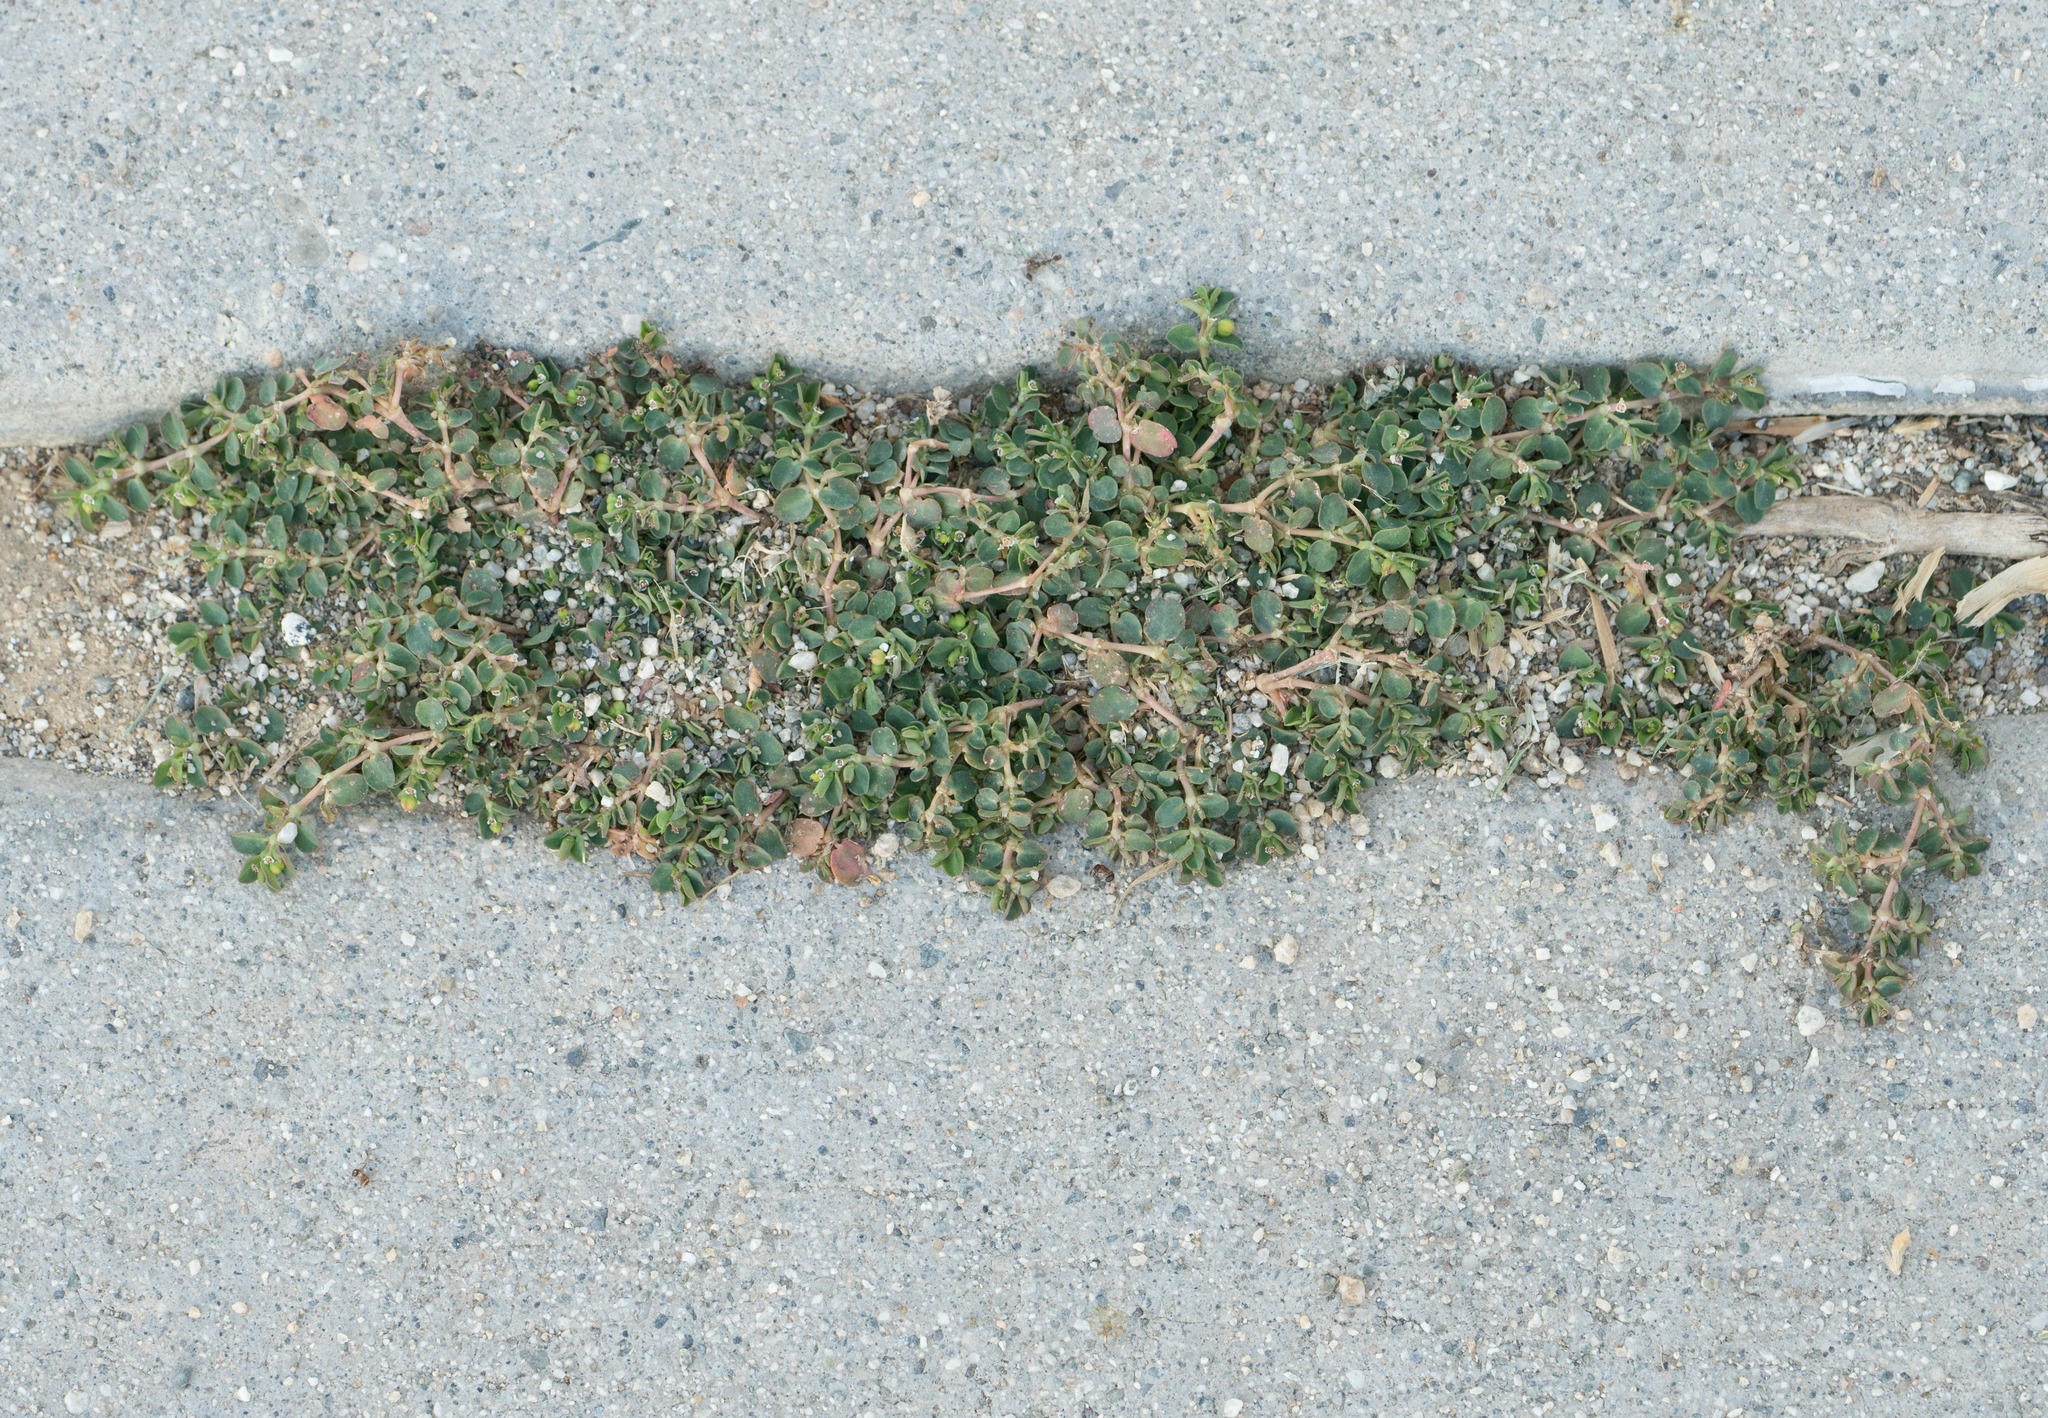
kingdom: Plantae
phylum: Tracheophyta
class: Magnoliopsida
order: Malpighiales
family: Euphorbiaceae
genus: Euphorbia
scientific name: Euphorbia serpens
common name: Matted sandmat
